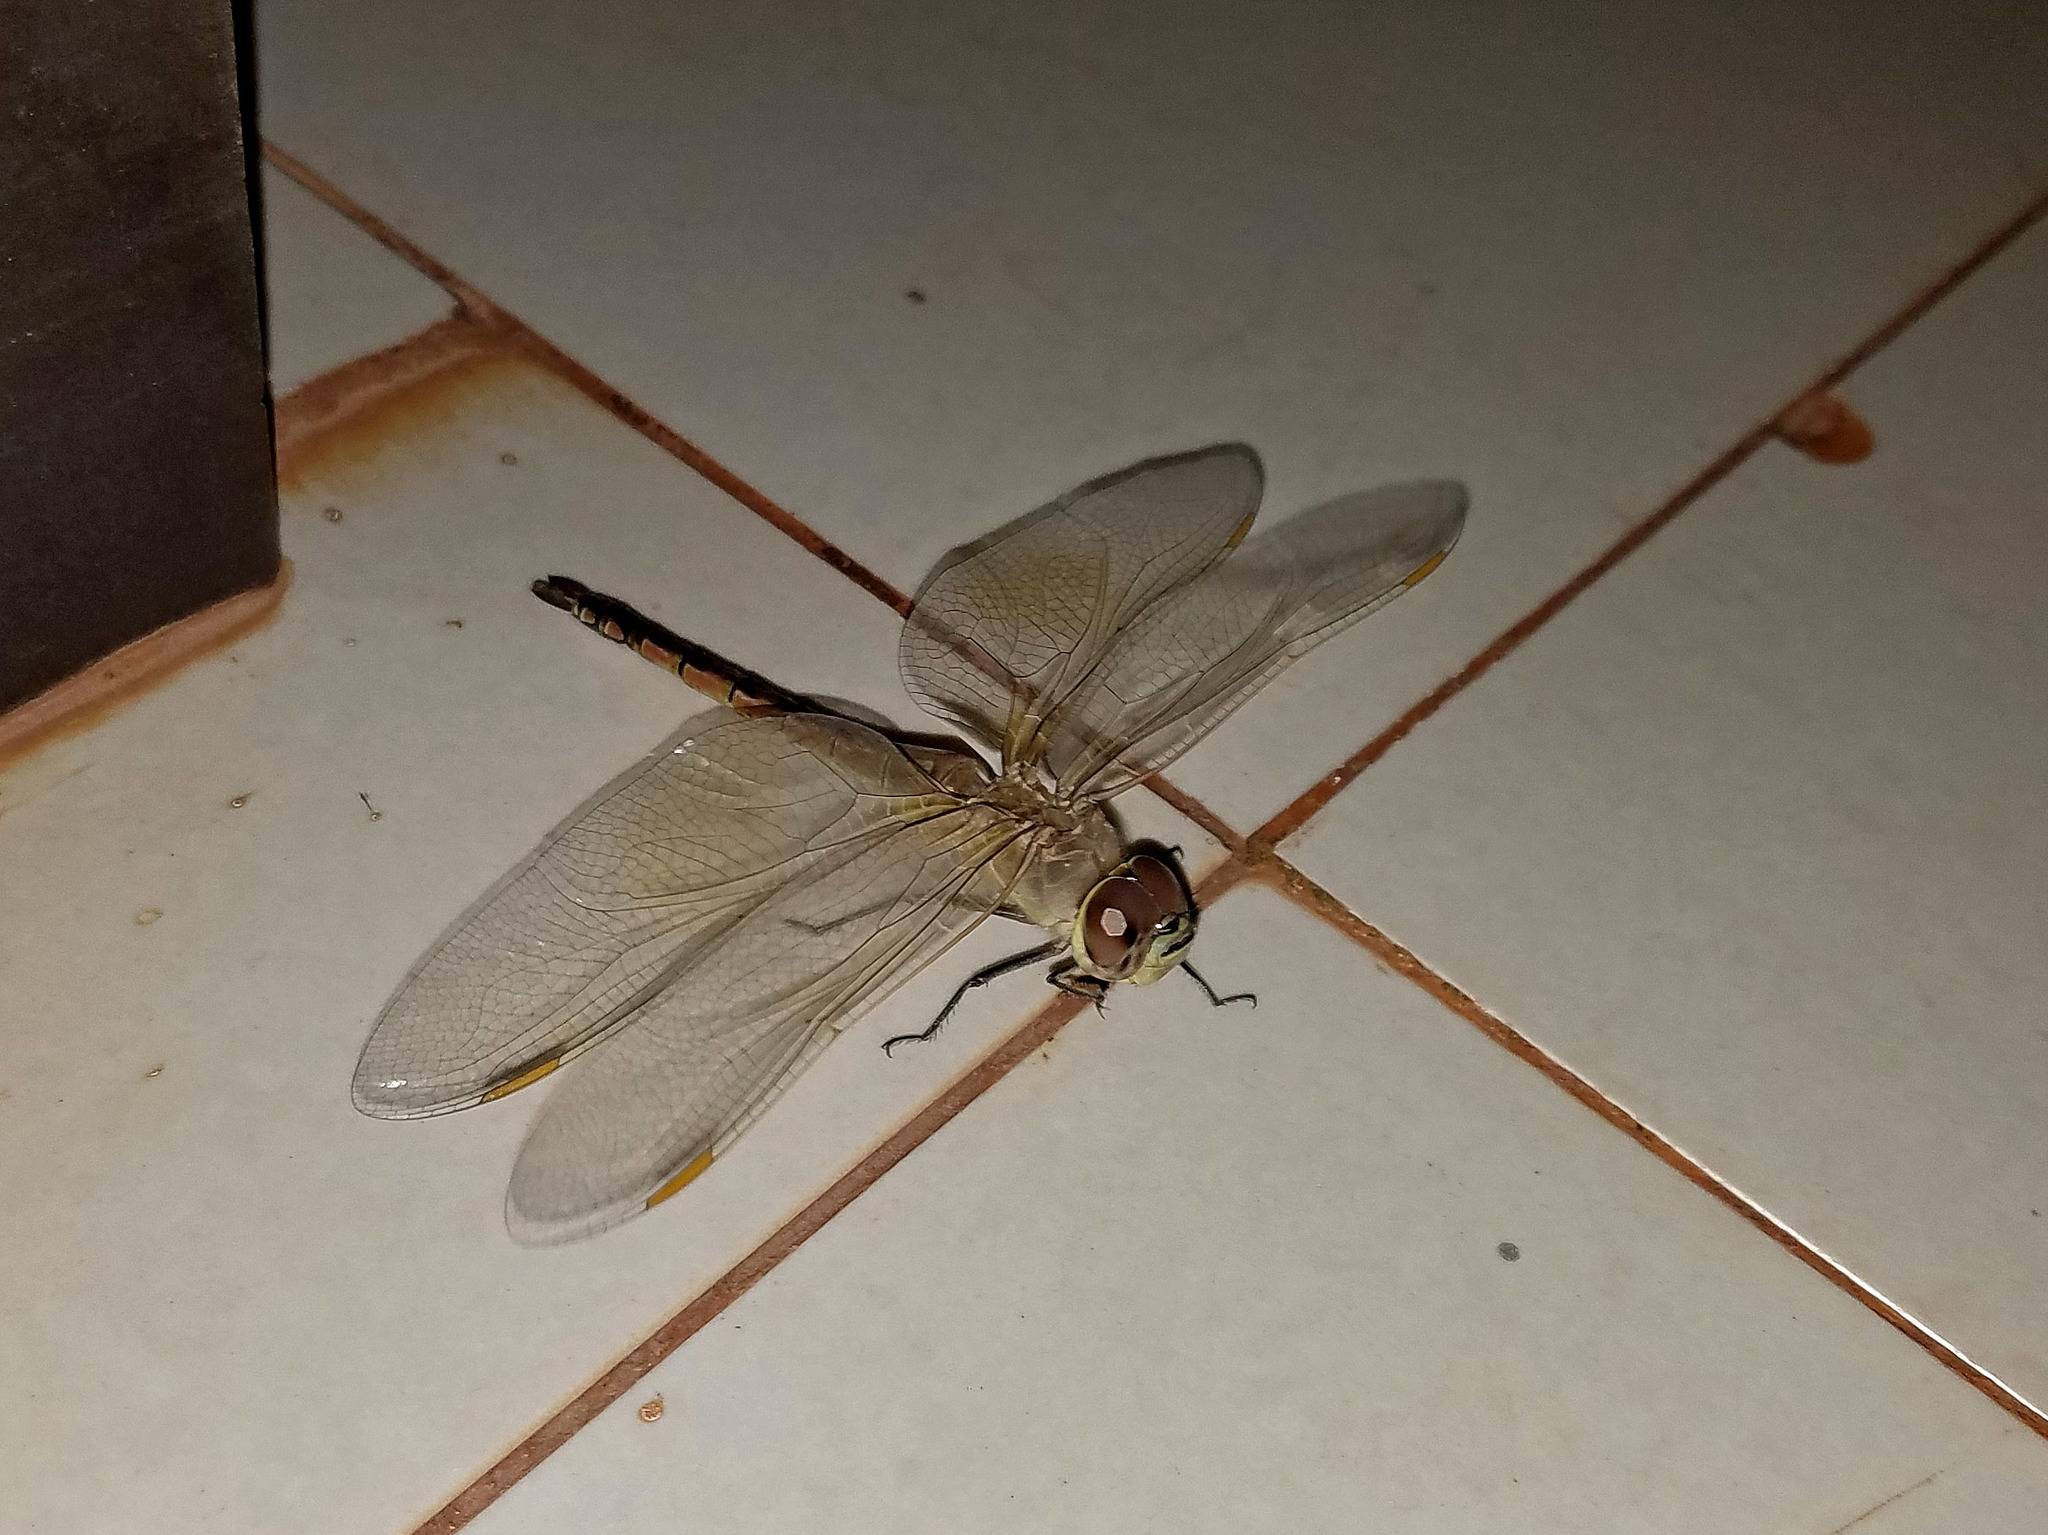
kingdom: Animalia
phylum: Arthropoda
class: Insecta
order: Odonata
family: Aeshnidae
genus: Anax
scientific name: Anax ephippiger
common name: Vagrant emperor
